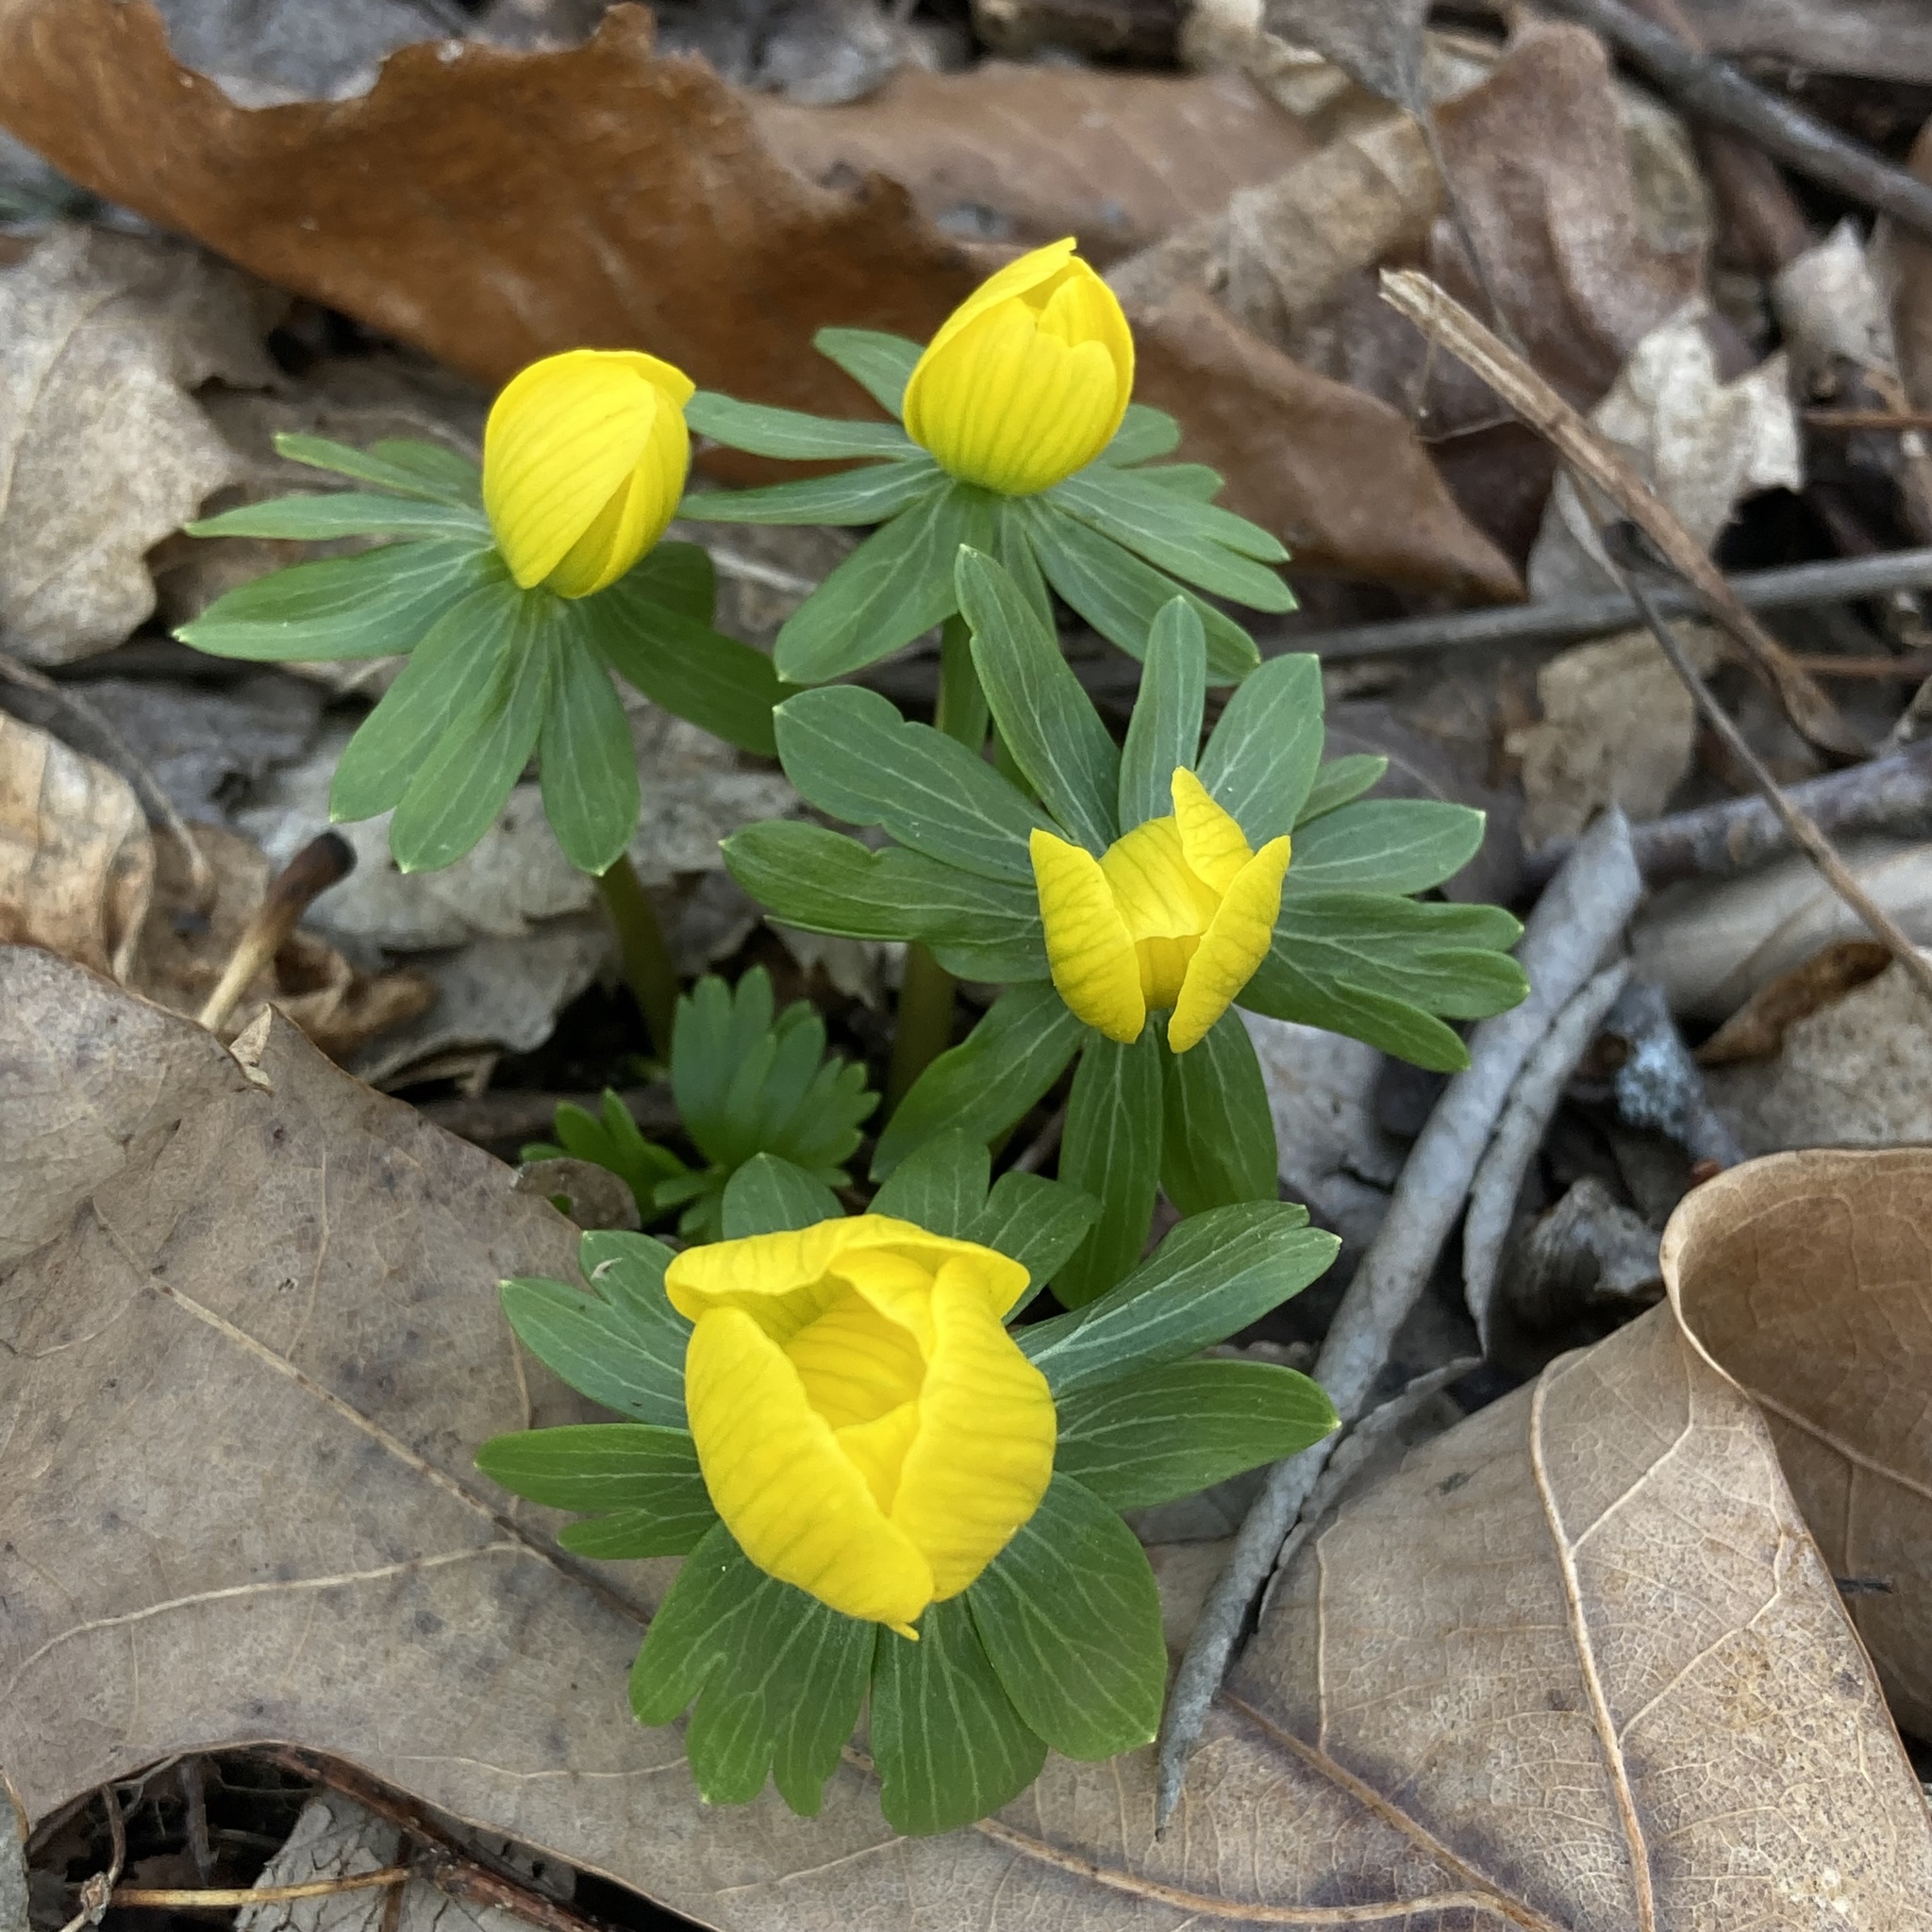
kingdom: Plantae
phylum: Tracheophyta
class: Magnoliopsida
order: Ranunculales
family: Ranunculaceae
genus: Eranthis
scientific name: Eranthis hyemalis
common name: Winter aconite
